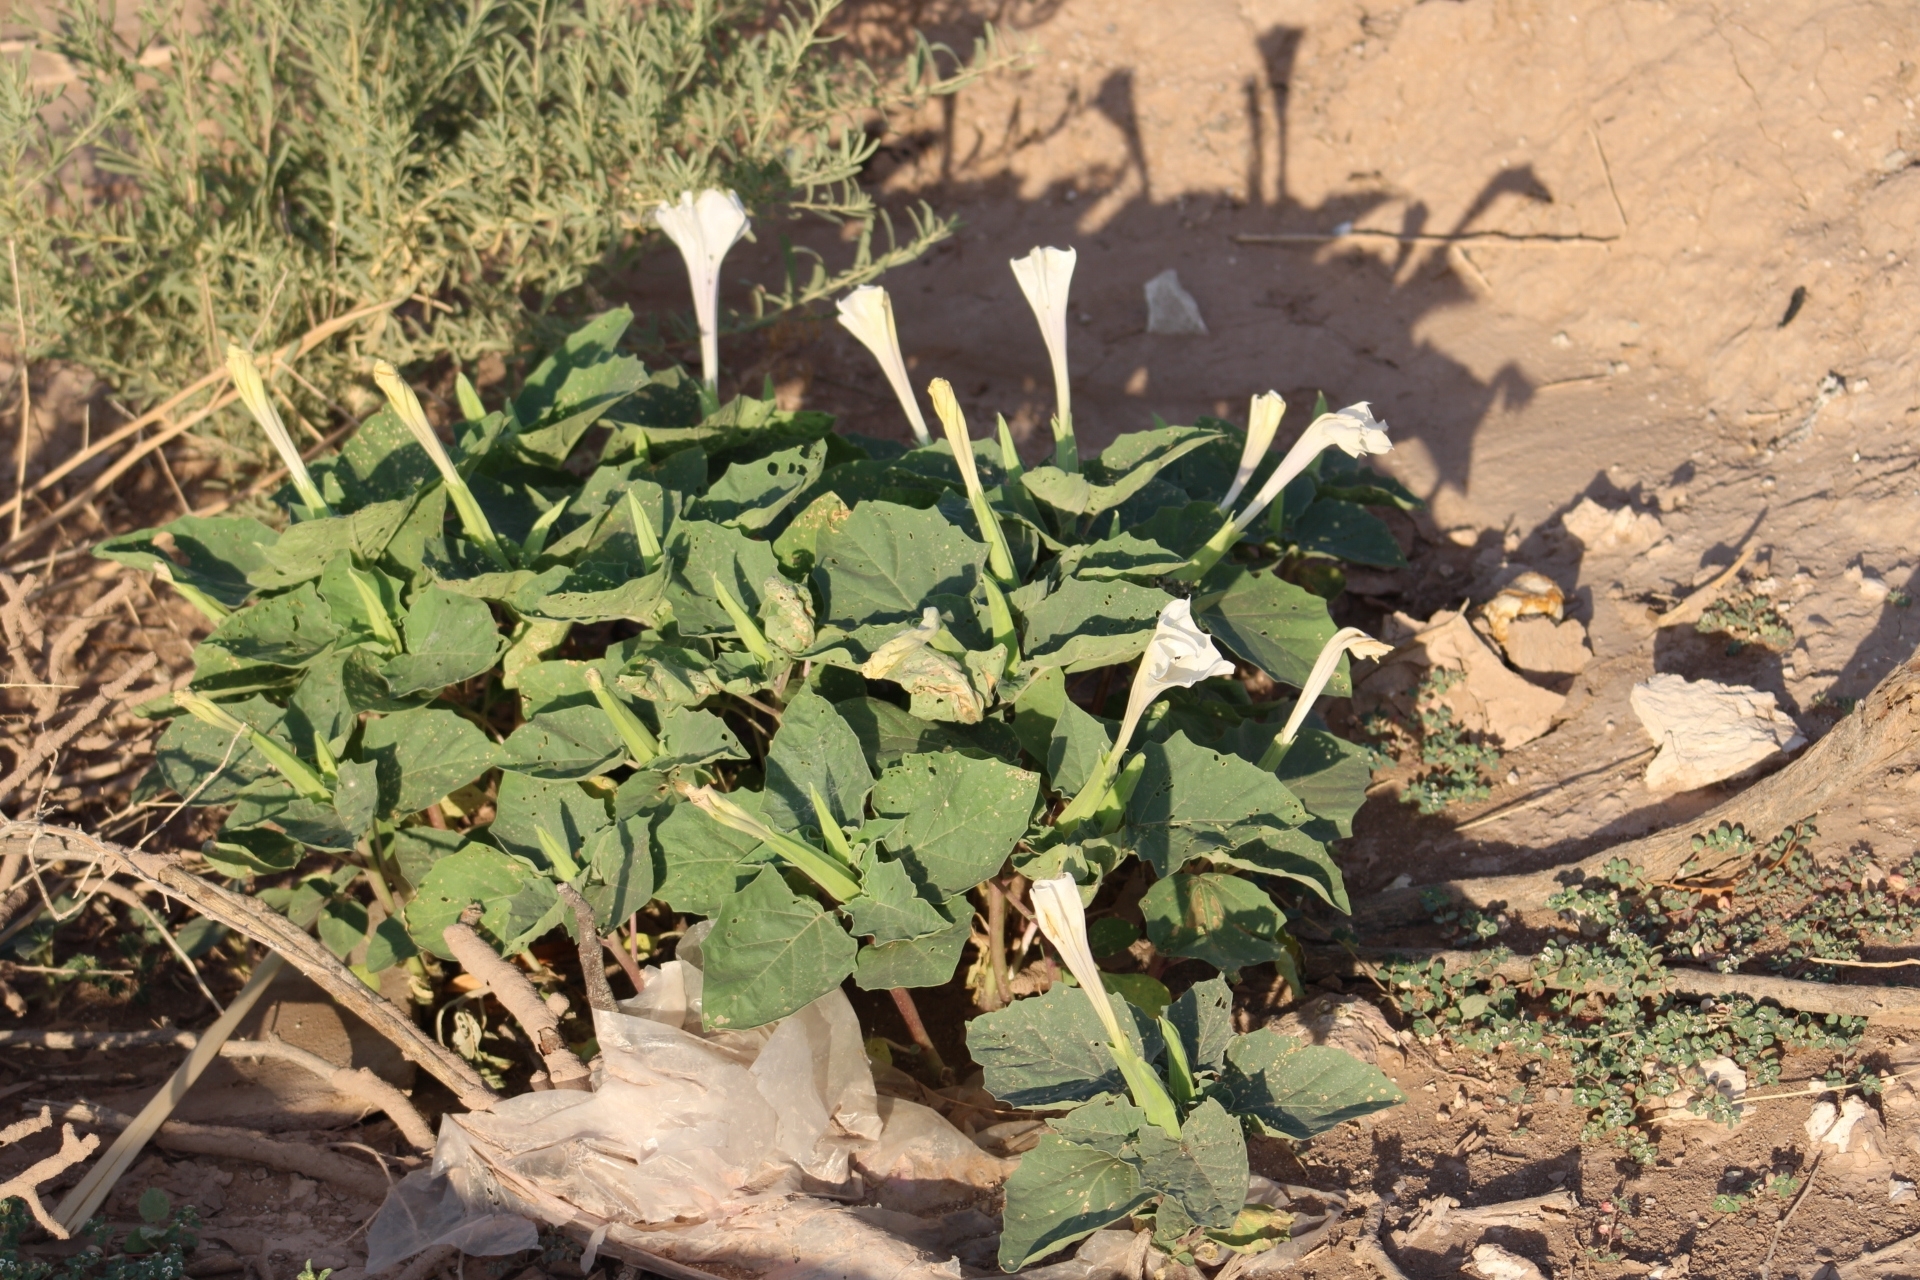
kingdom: Plantae
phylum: Tracheophyta
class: Magnoliopsida
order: Solanales
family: Solanaceae
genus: Datura
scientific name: Datura discolor
